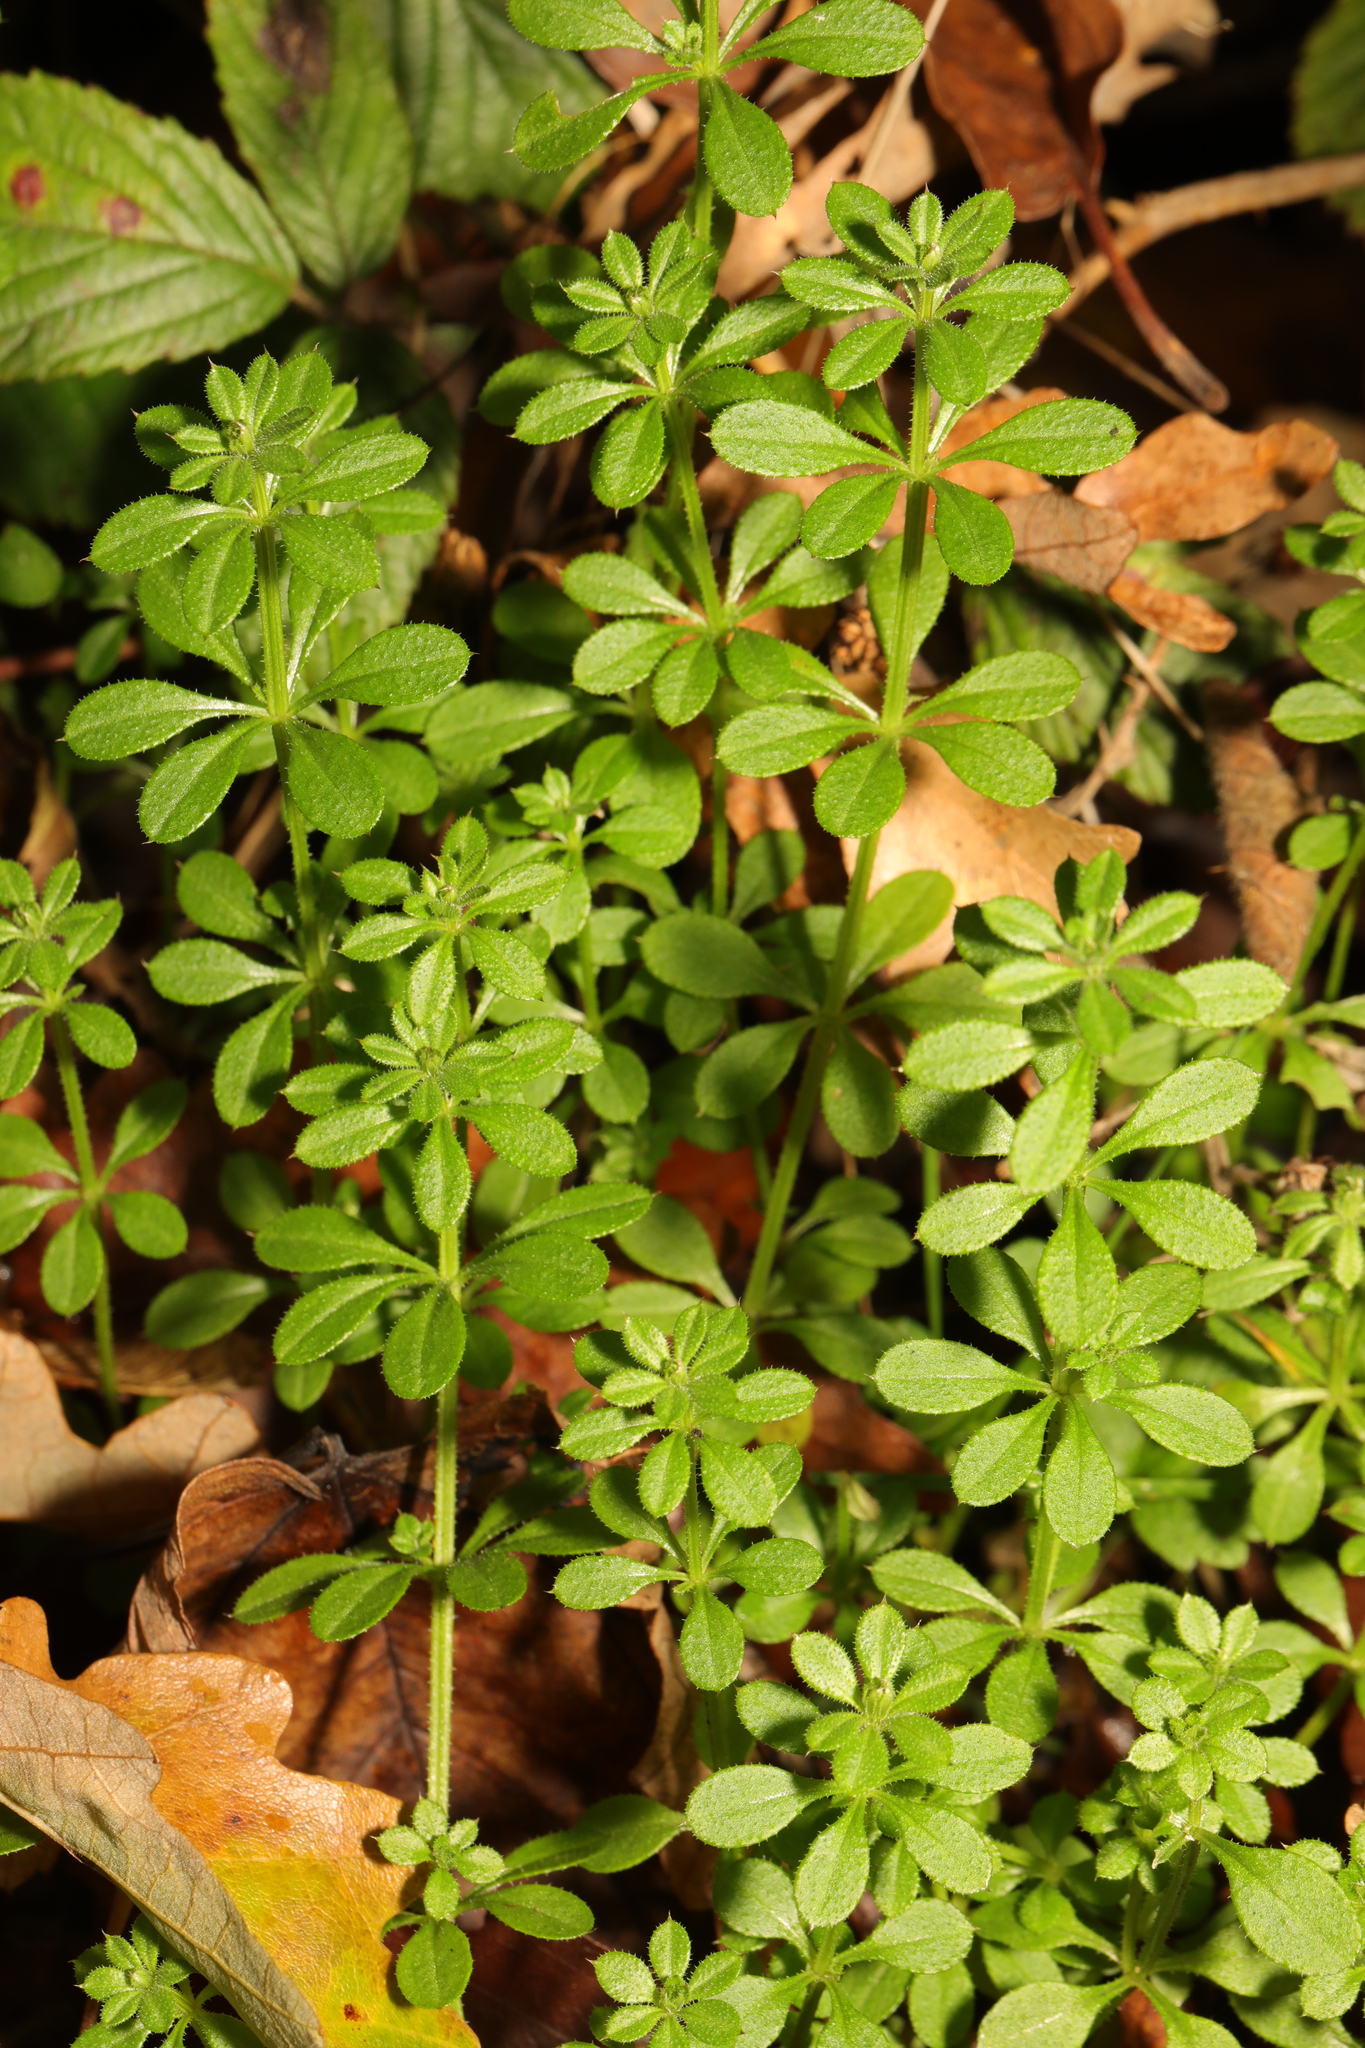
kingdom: Plantae
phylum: Tracheophyta
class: Magnoliopsida
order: Gentianales
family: Rubiaceae
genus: Galium
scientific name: Galium aparine
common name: Cleavers
